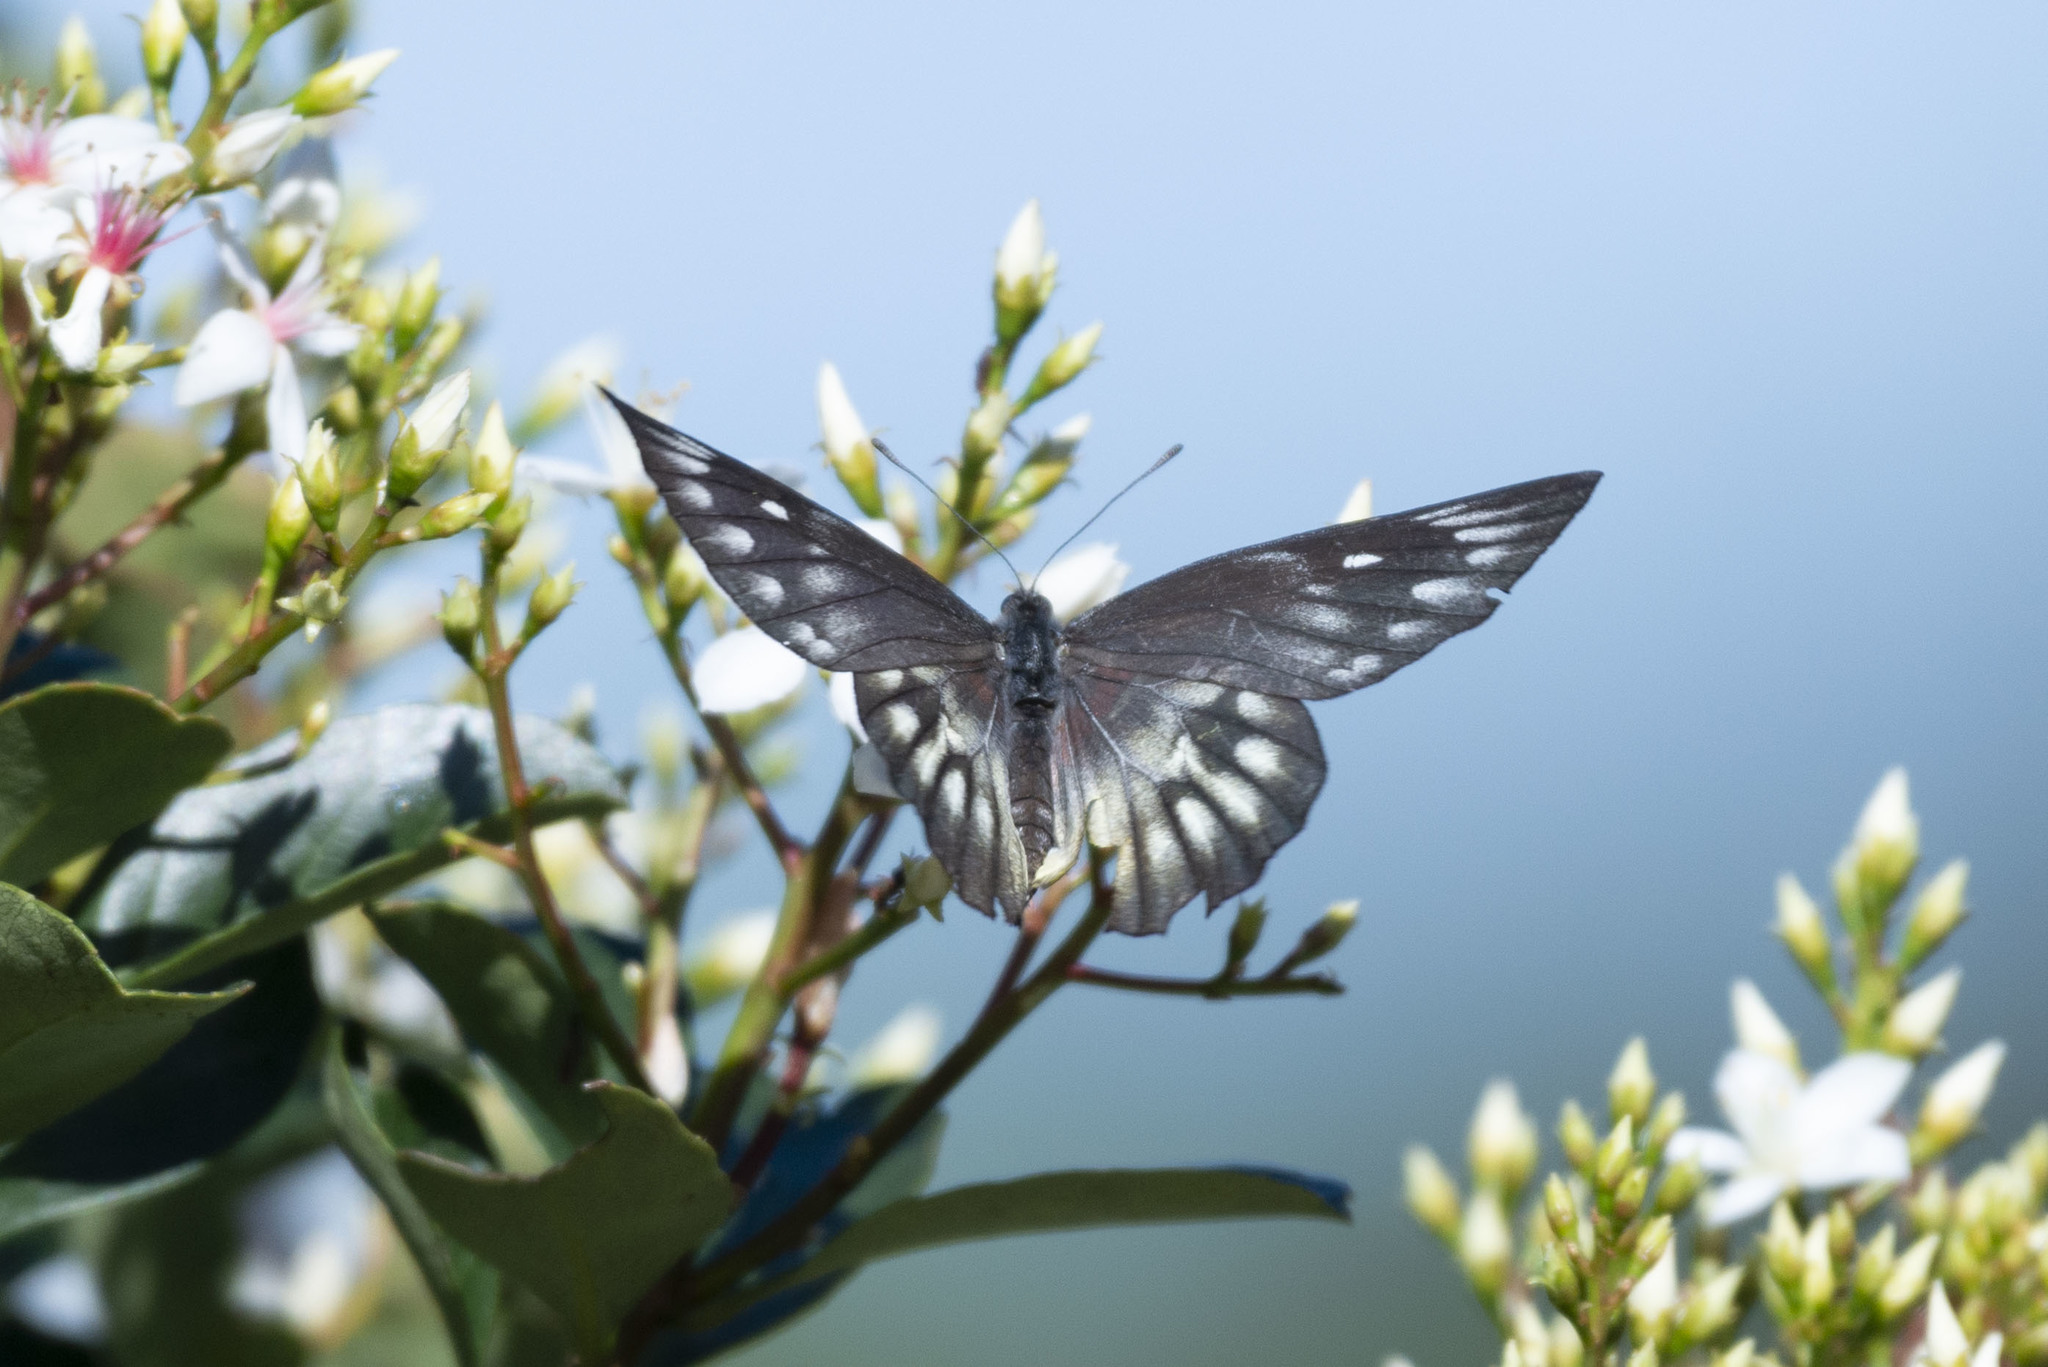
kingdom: Animalia
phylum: Arthropoda
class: Insecta
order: Lepidoptera
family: Pieridae
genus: Delias
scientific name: Delias pasithoe
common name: Red-base jezebel
